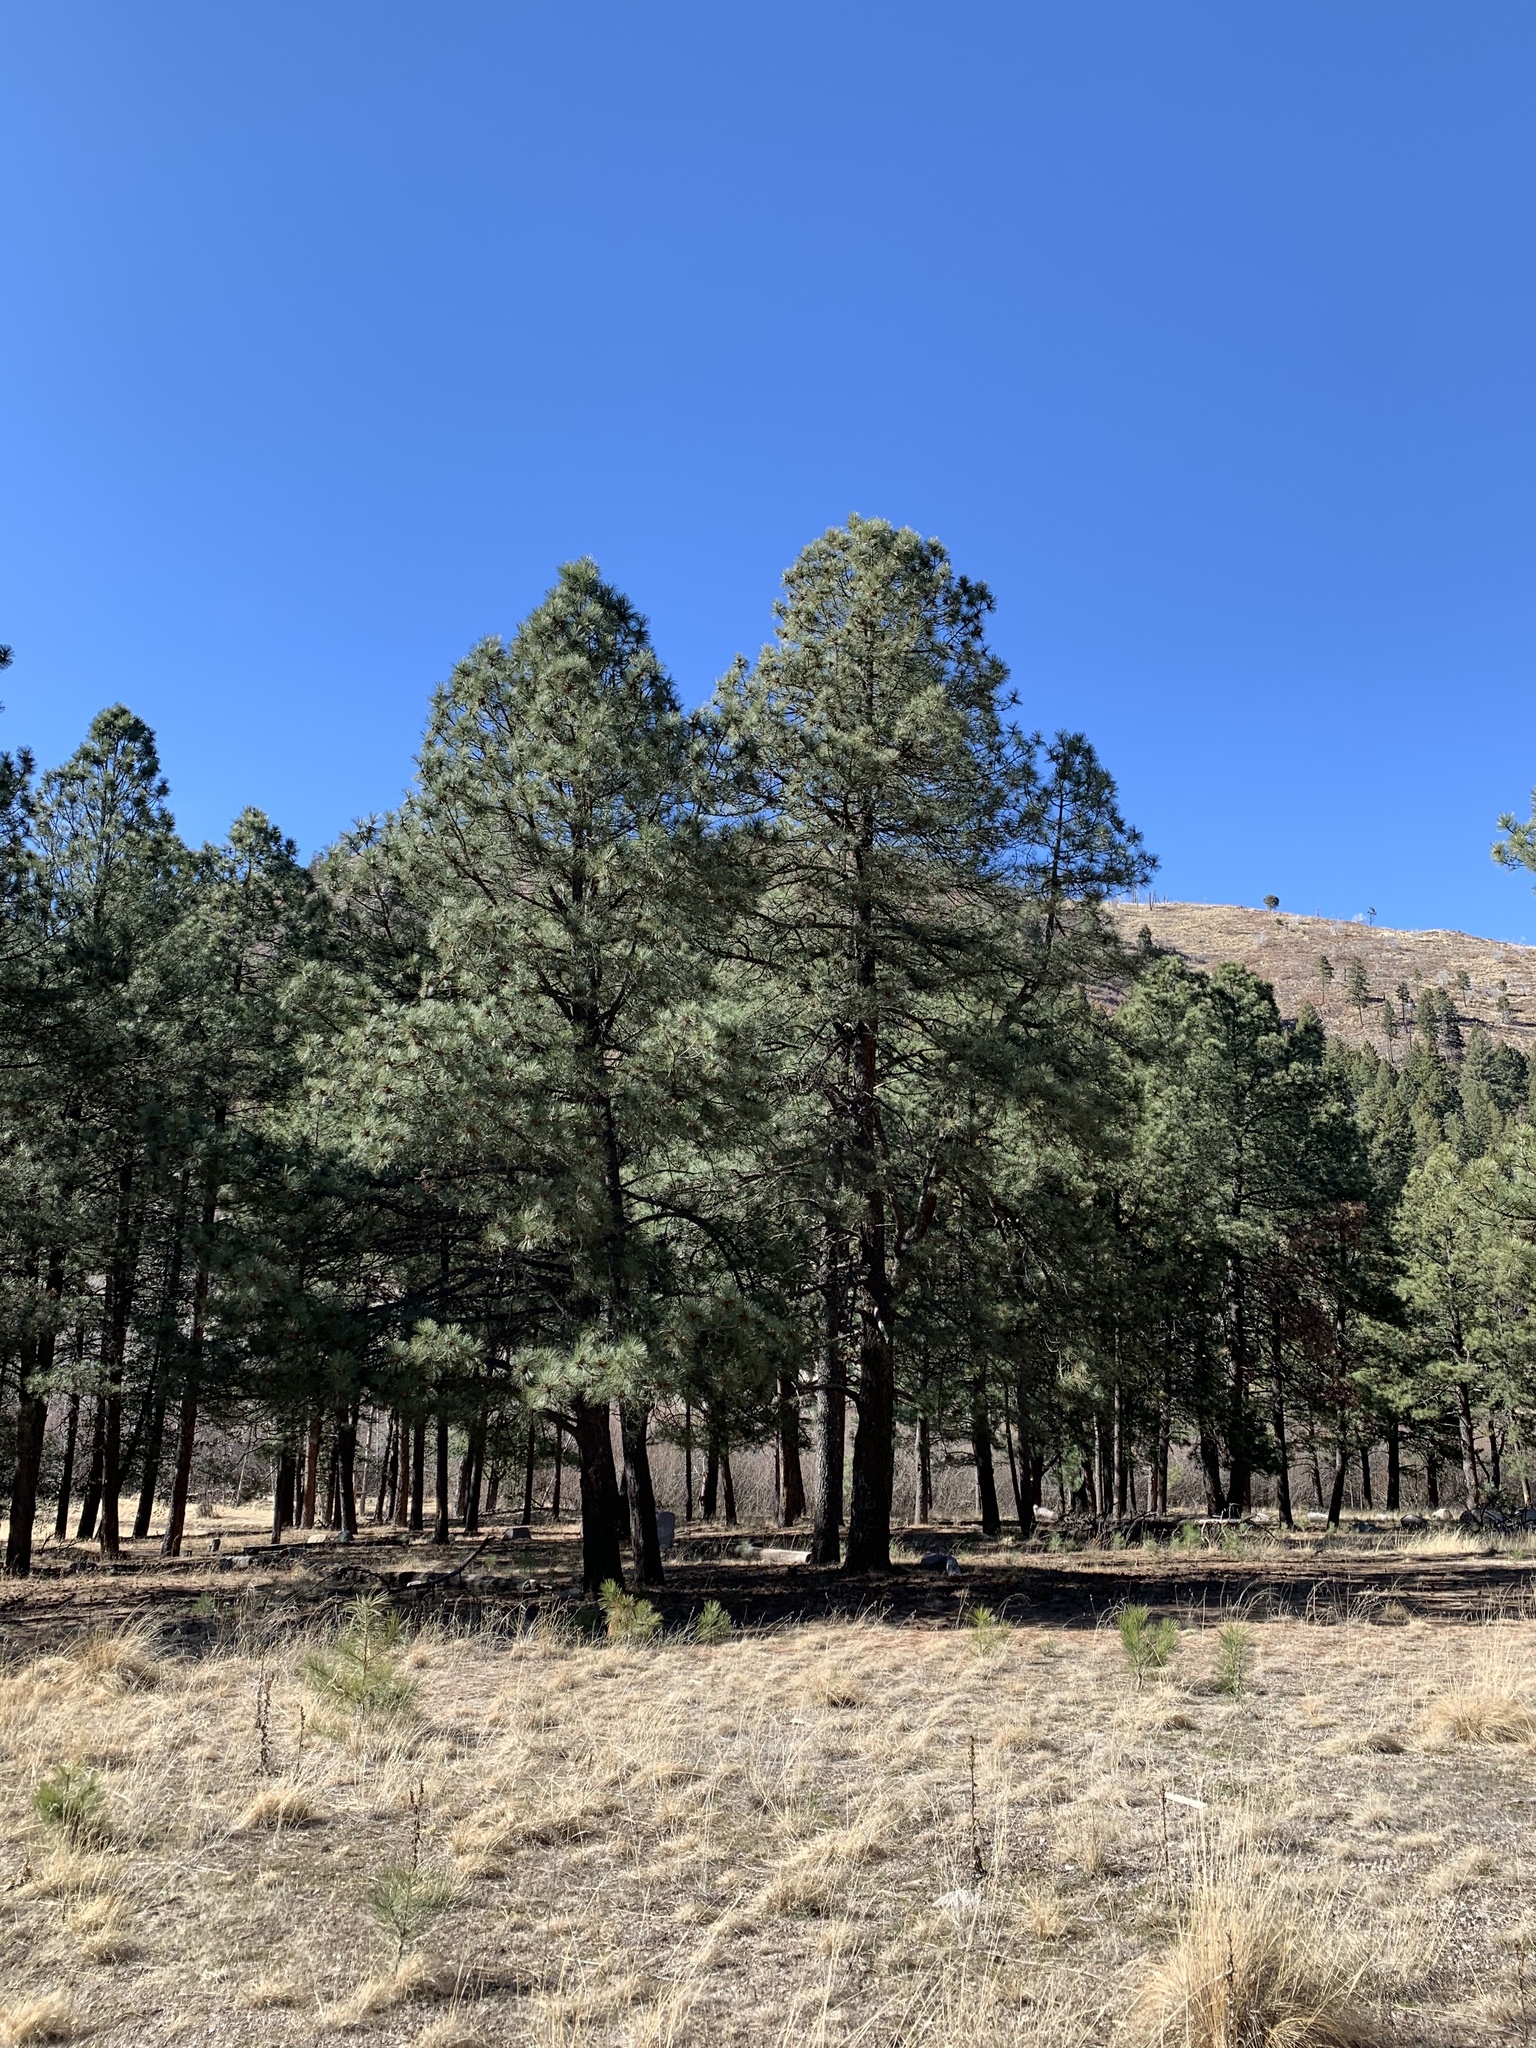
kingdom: Plantae
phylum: Tracheophyta
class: Pinopsida
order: Pinales
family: Pinaceae
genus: Pinus
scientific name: Pinus ponderosa
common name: Western yellow-pine
